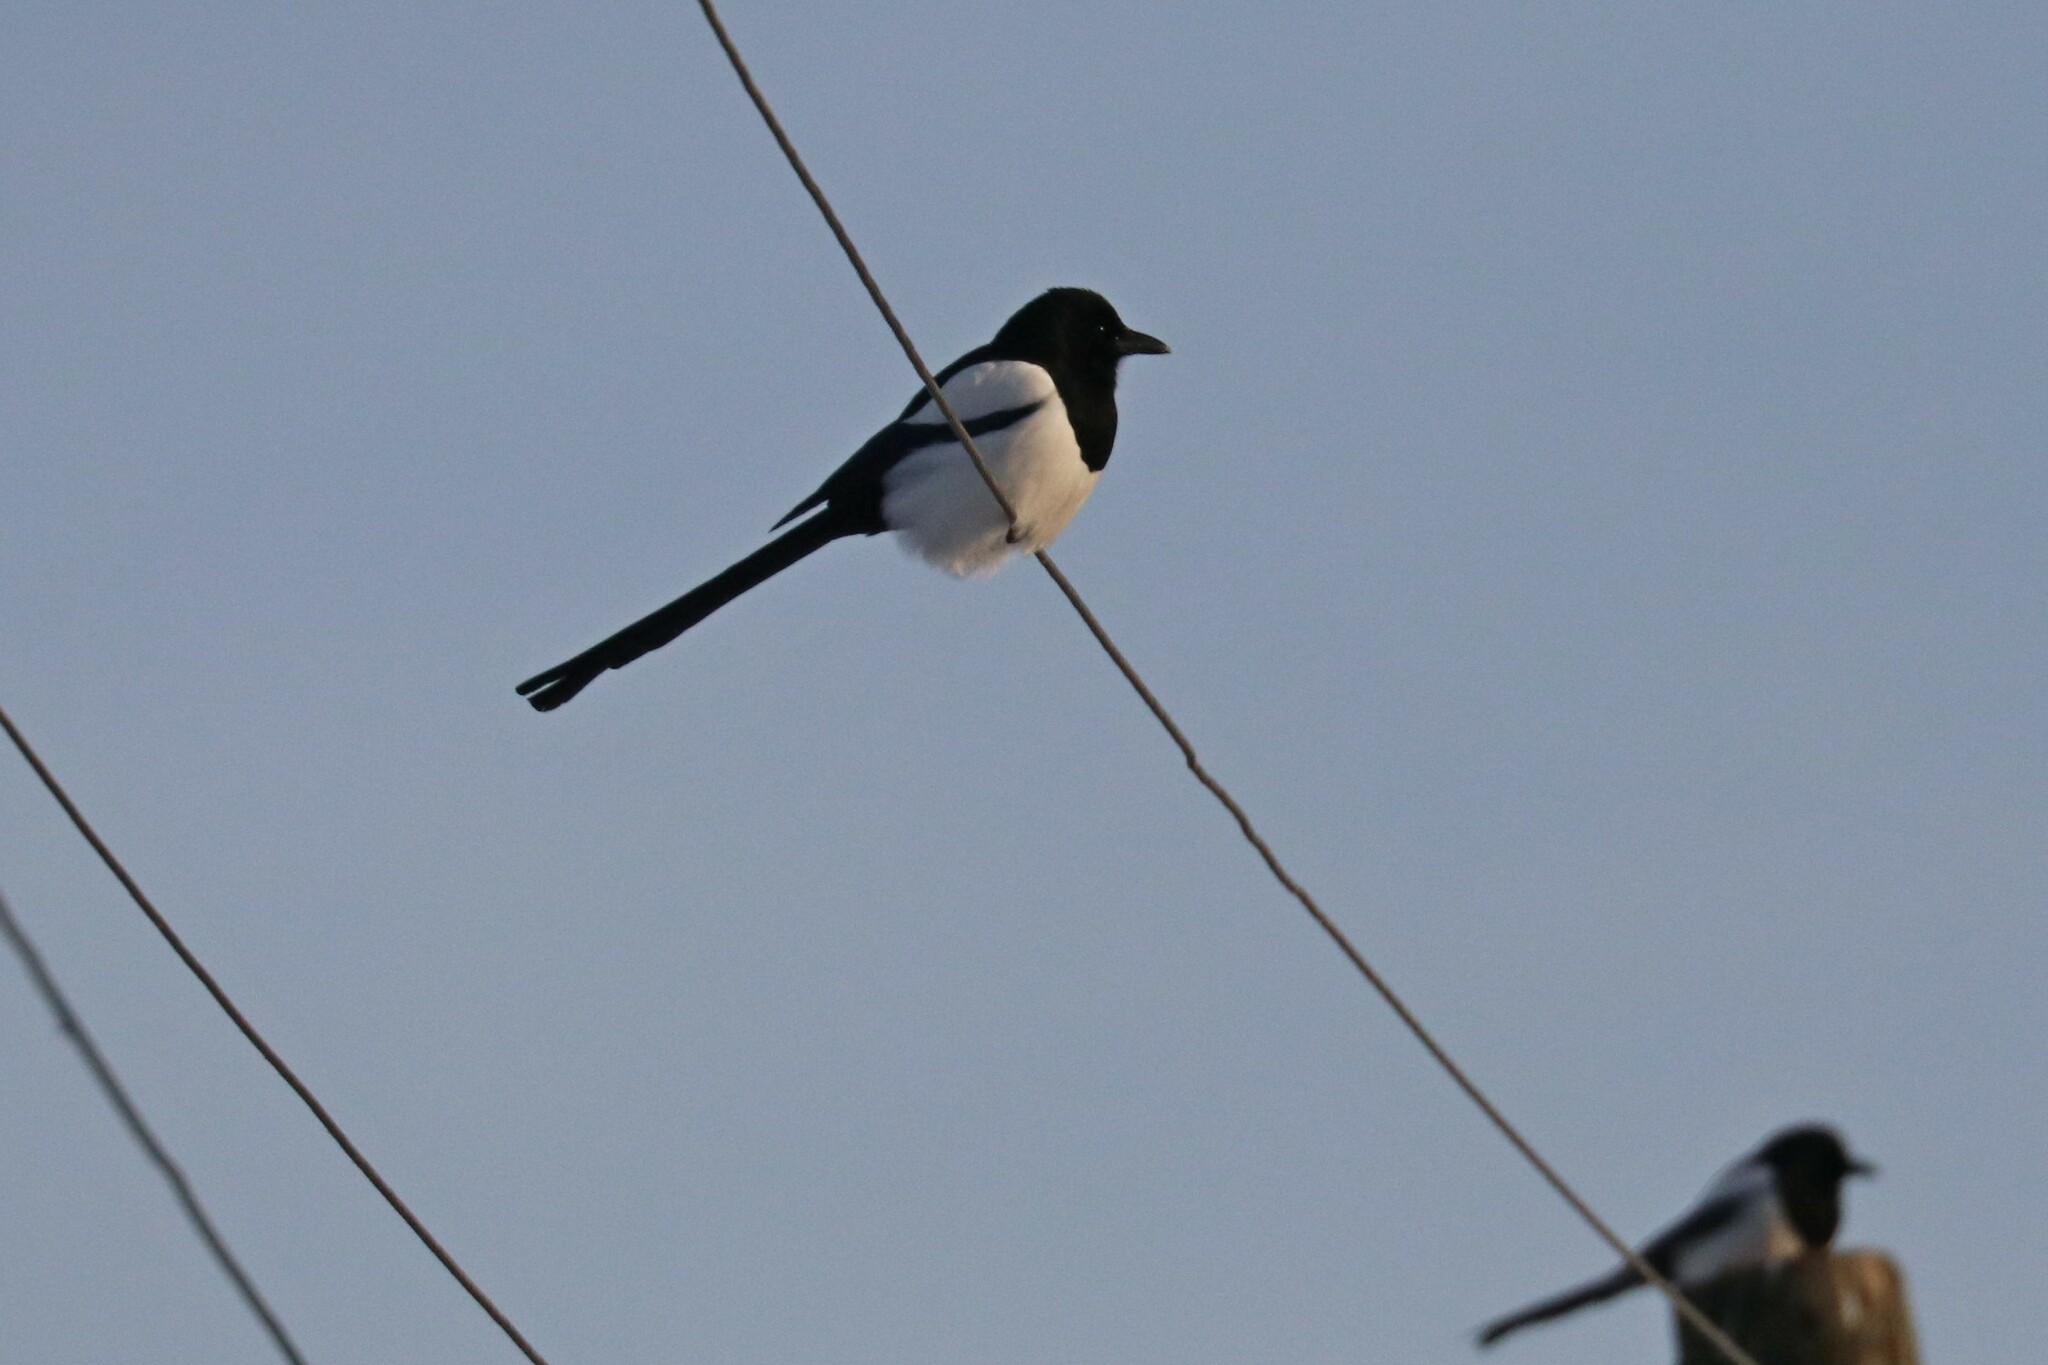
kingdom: Animalia
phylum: Chordata
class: Aves
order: Passeriformes
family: Corvidae
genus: Pica
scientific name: Pica pica
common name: Eurasian magpie
